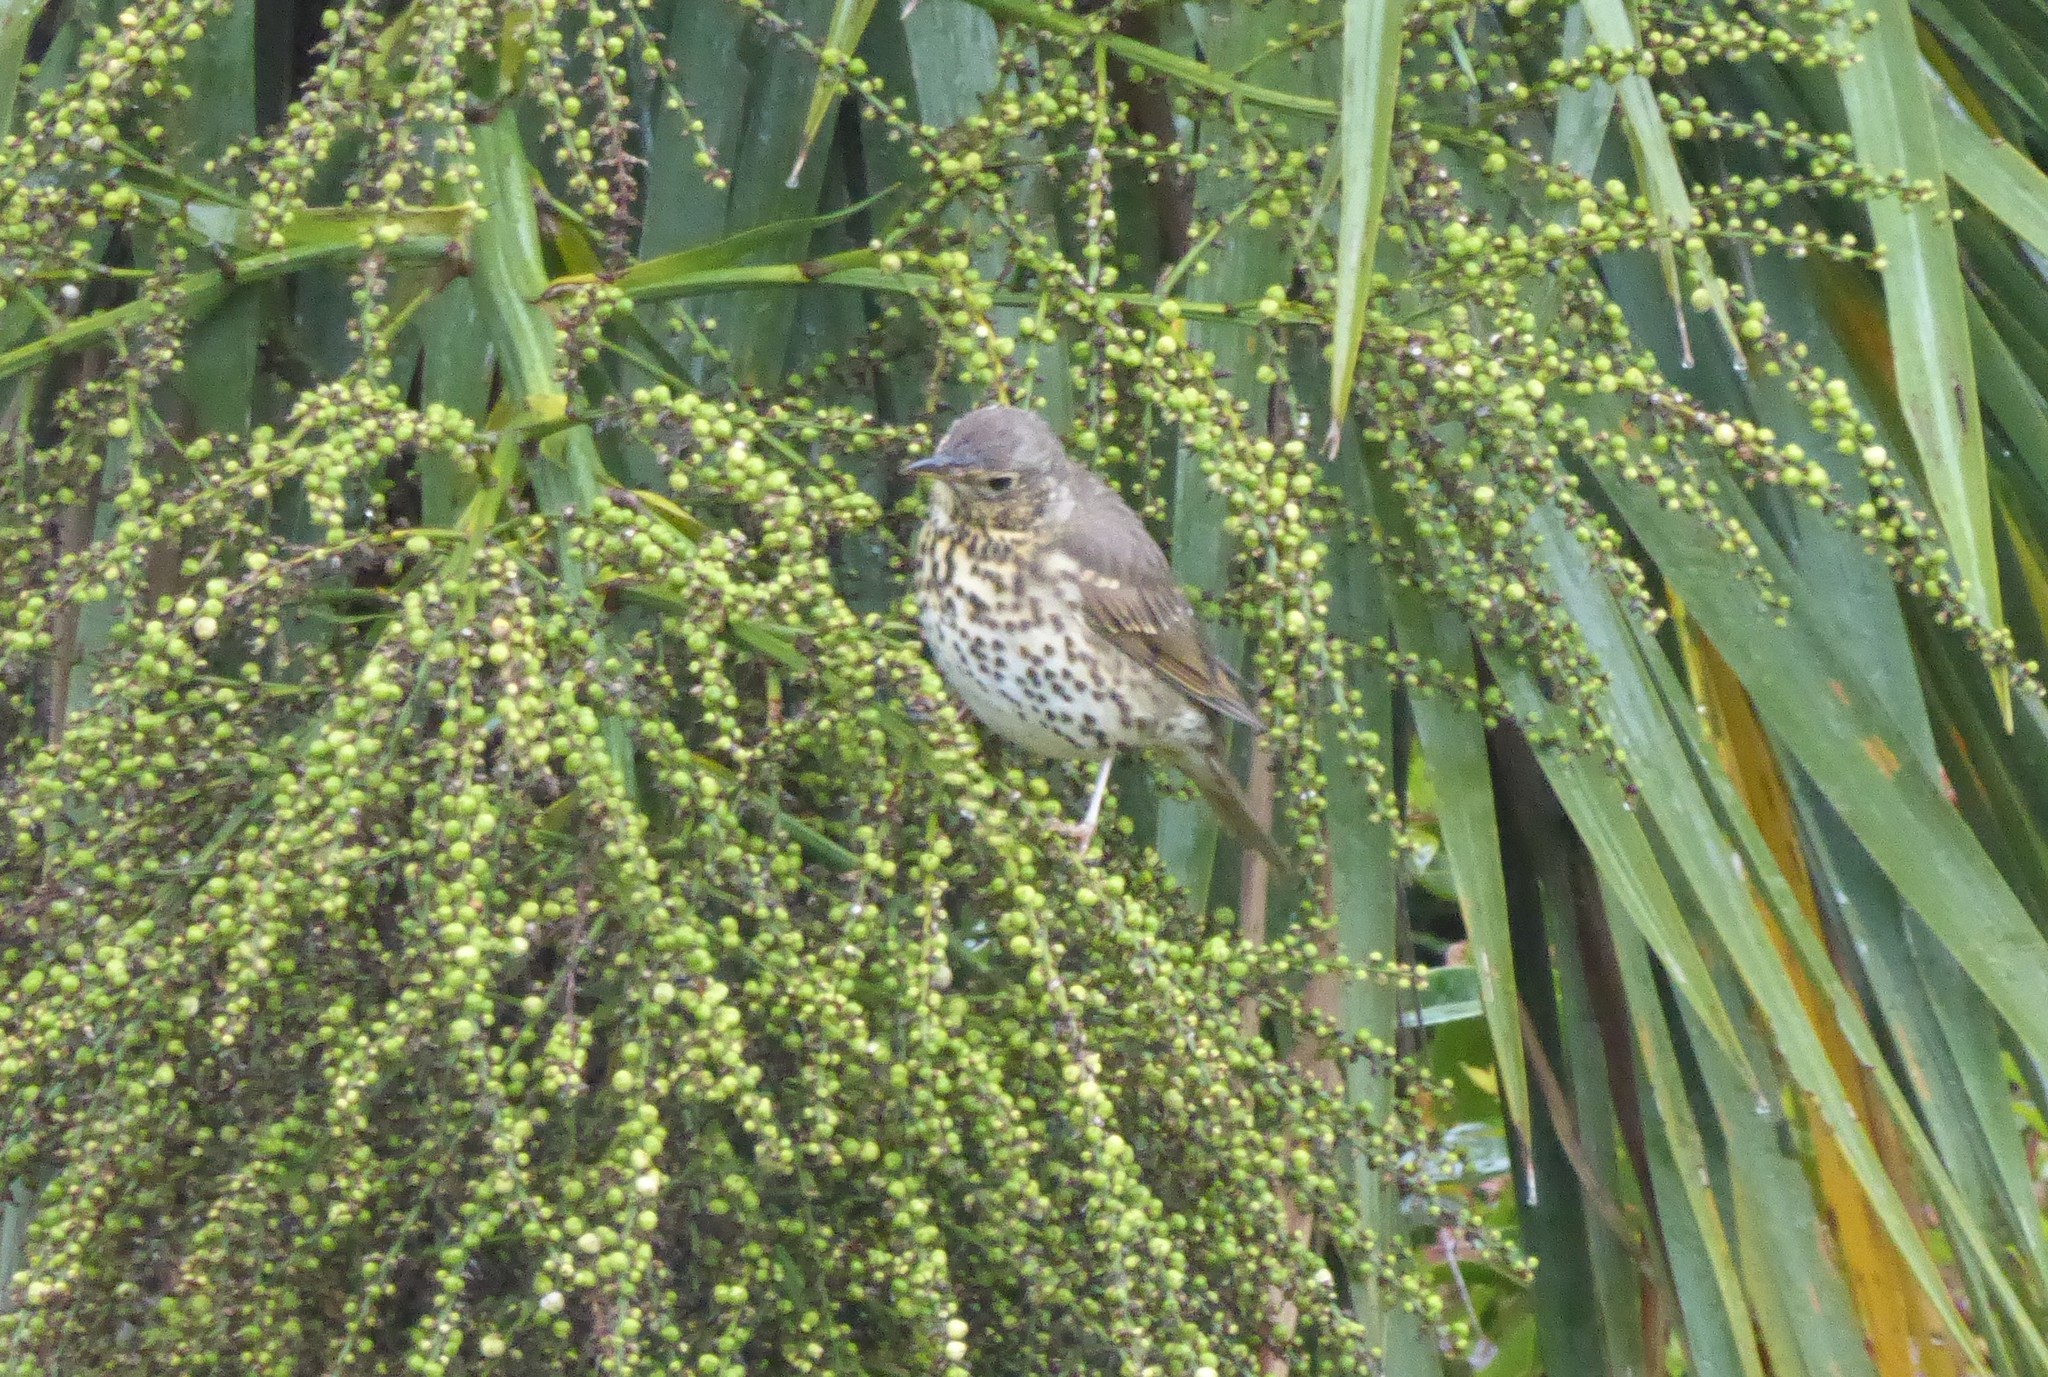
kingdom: Animalia
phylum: Chordata
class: Aves
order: Passeriformes
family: Turdidae
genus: Turdus
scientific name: Turdus philomelos
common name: Song thrush
